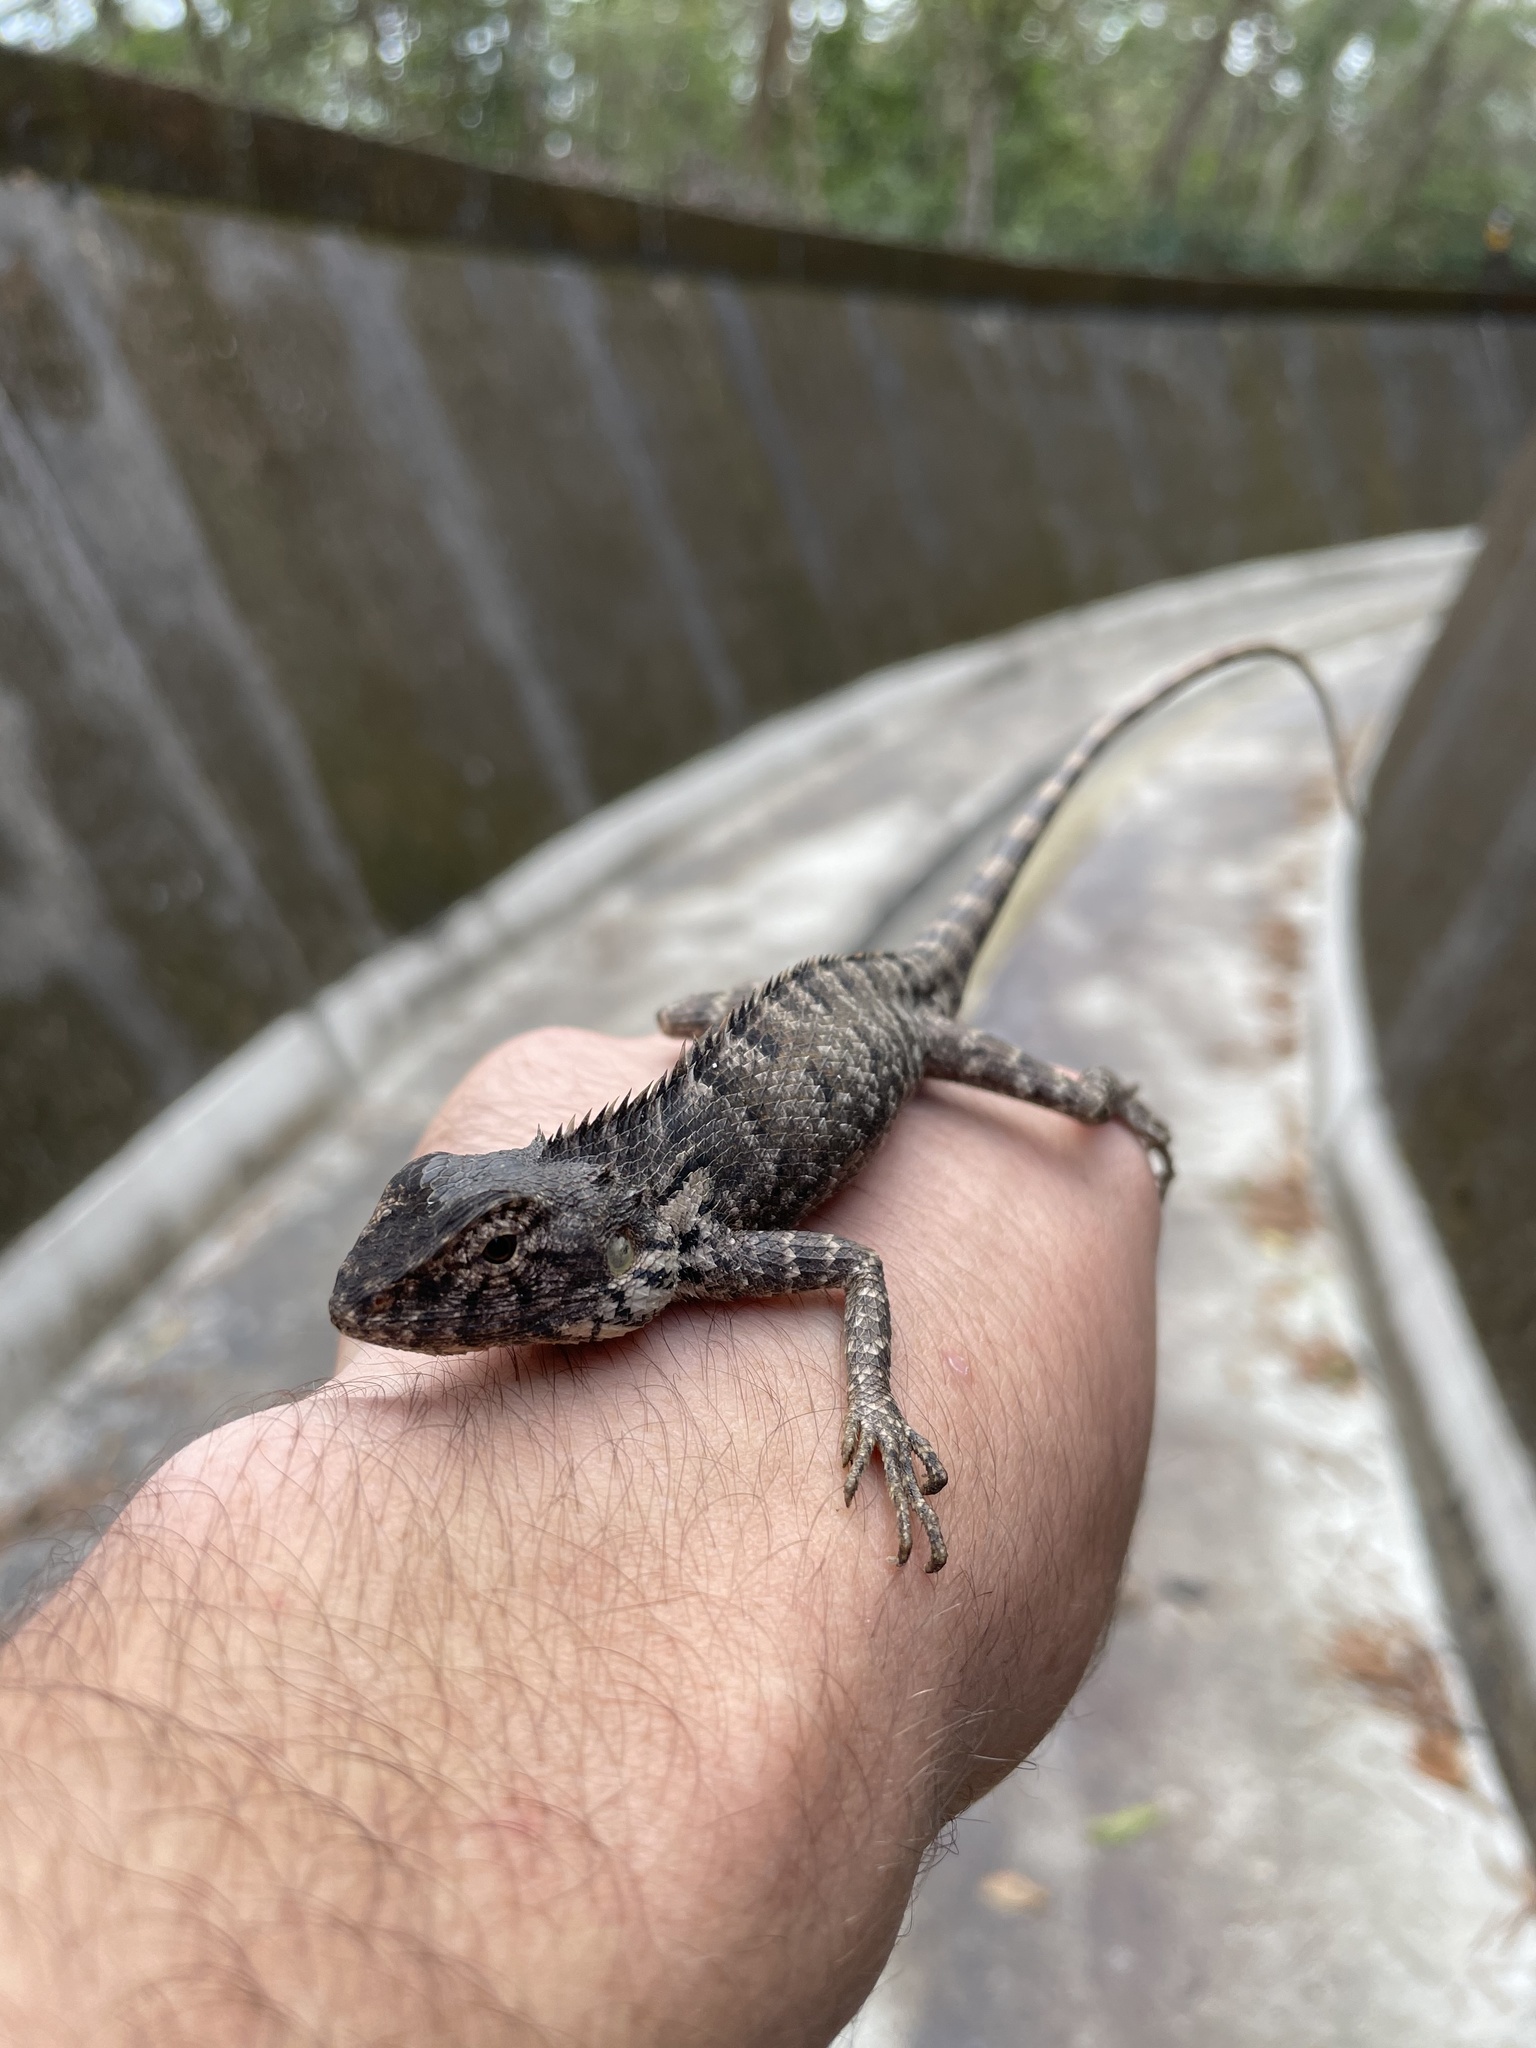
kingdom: Animalia
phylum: Chordata
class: Squamata
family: Agamidae
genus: Calotes
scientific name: Calotes versicolor
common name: Oriental garden lizard
